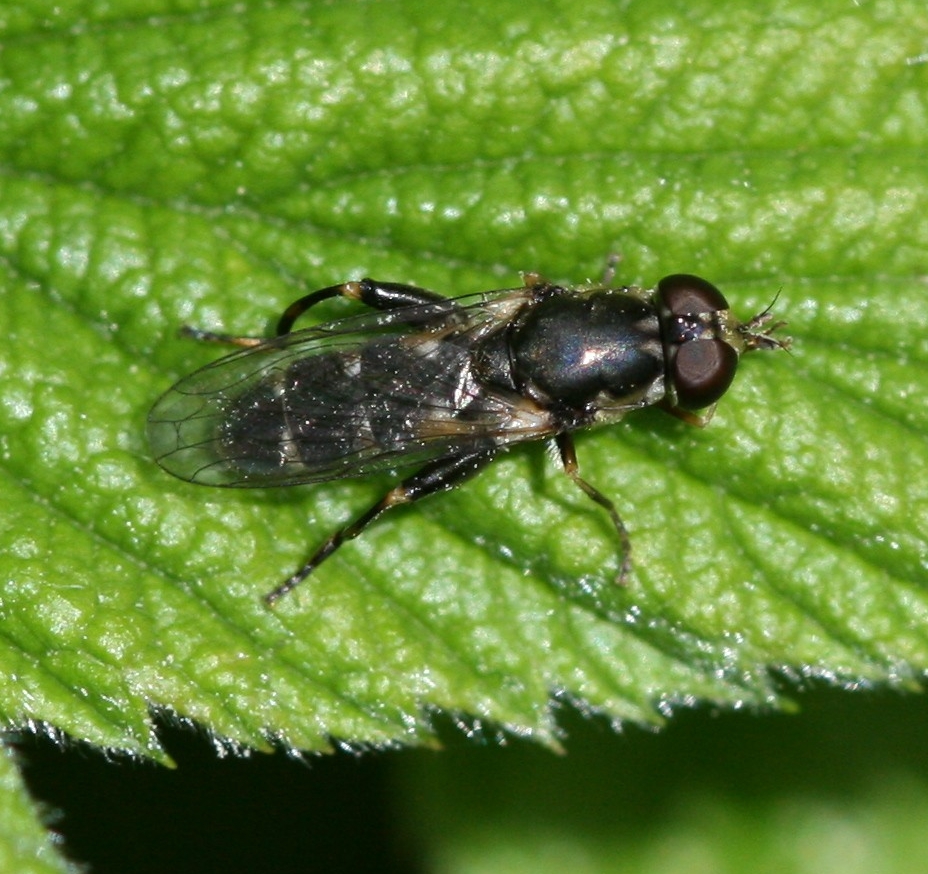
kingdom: Animalia
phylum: Arthropoda
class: Insecta
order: Diptera
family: Syrphidae
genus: Syritta
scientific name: Syritta pipiens
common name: Hover fly
